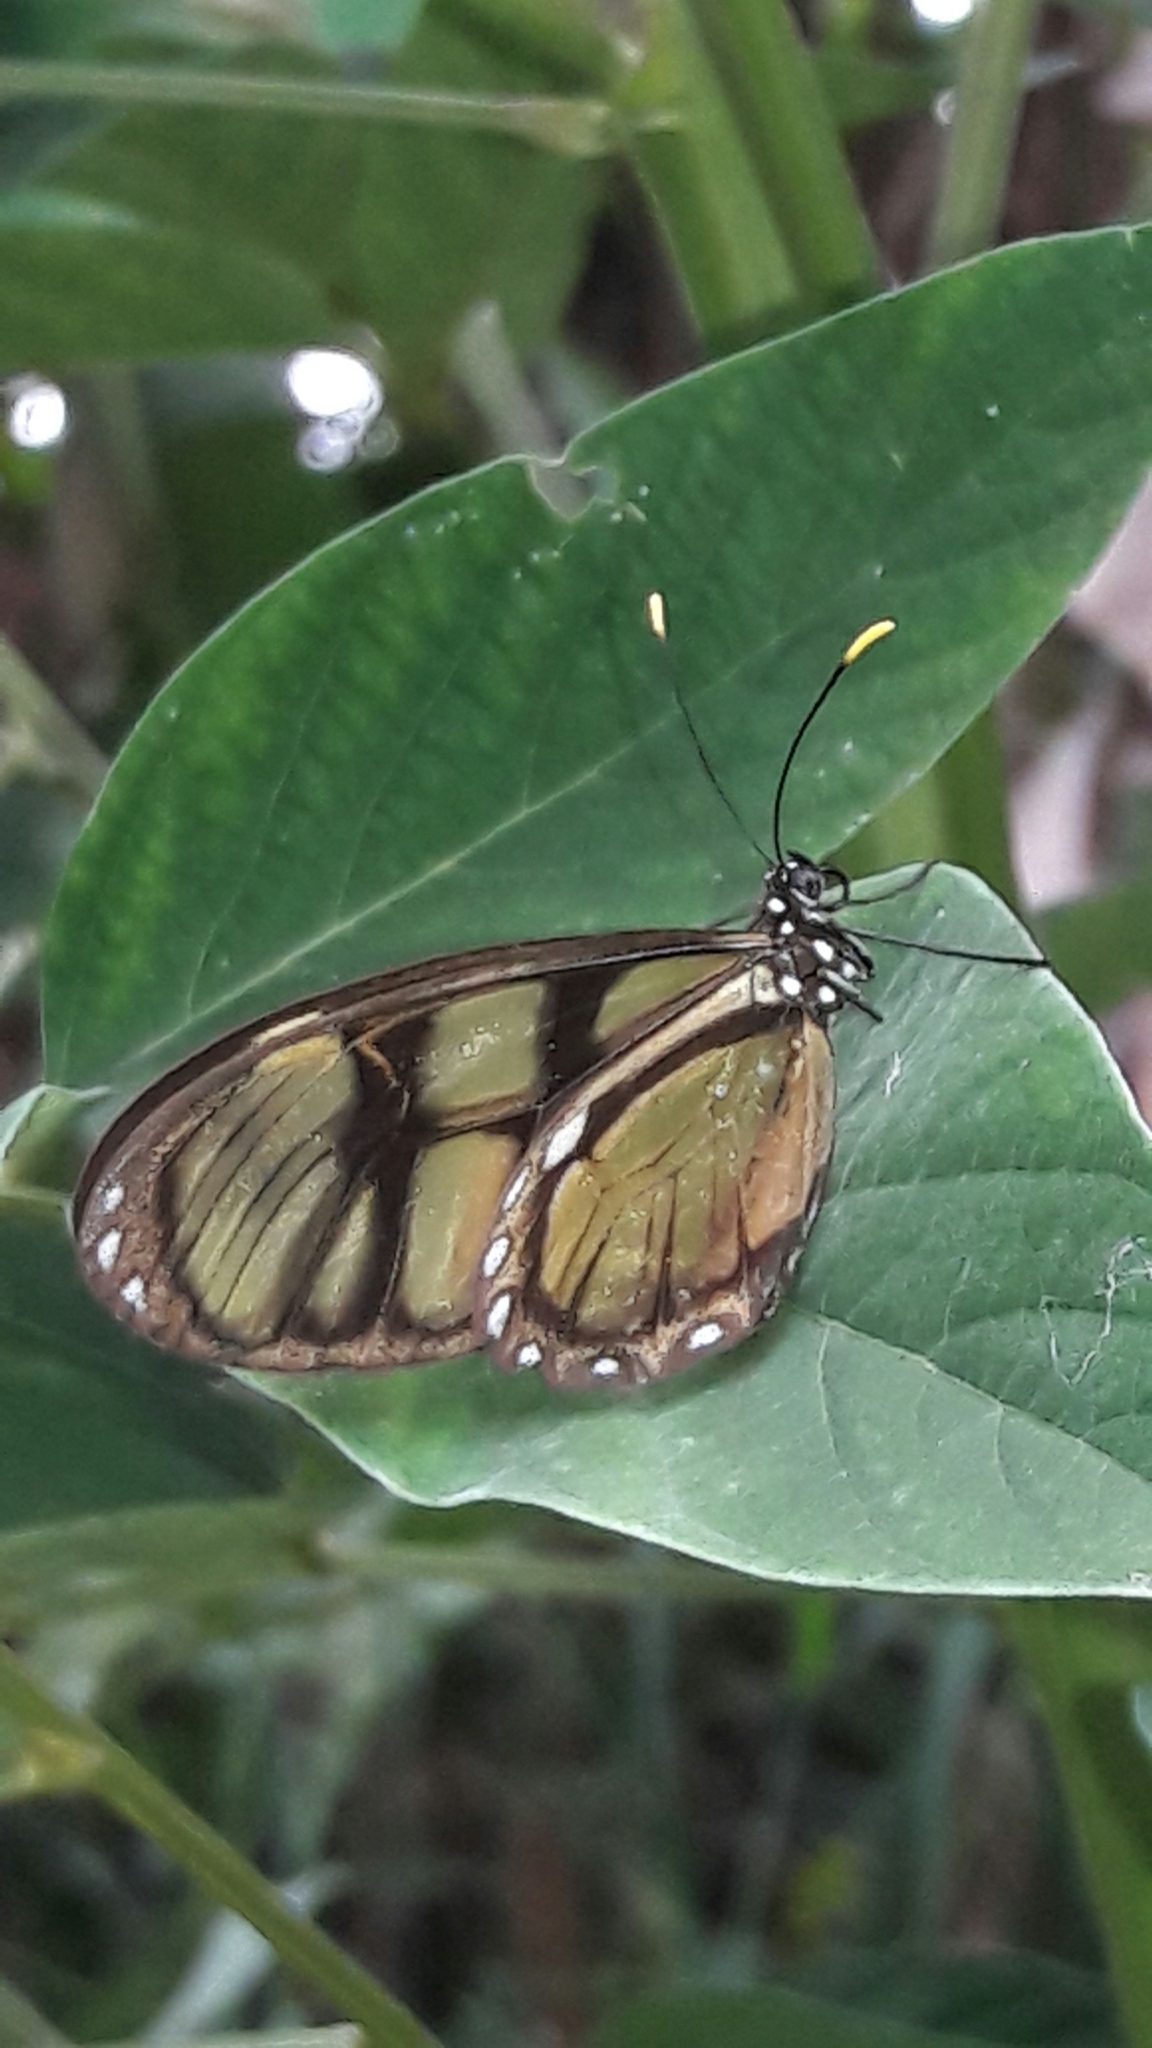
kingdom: Animalia
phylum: Arthropoda
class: Insecta
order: Lepidoptera
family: Nymphalidae
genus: Dircenna
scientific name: Dircenna dero
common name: Dero clearwing
